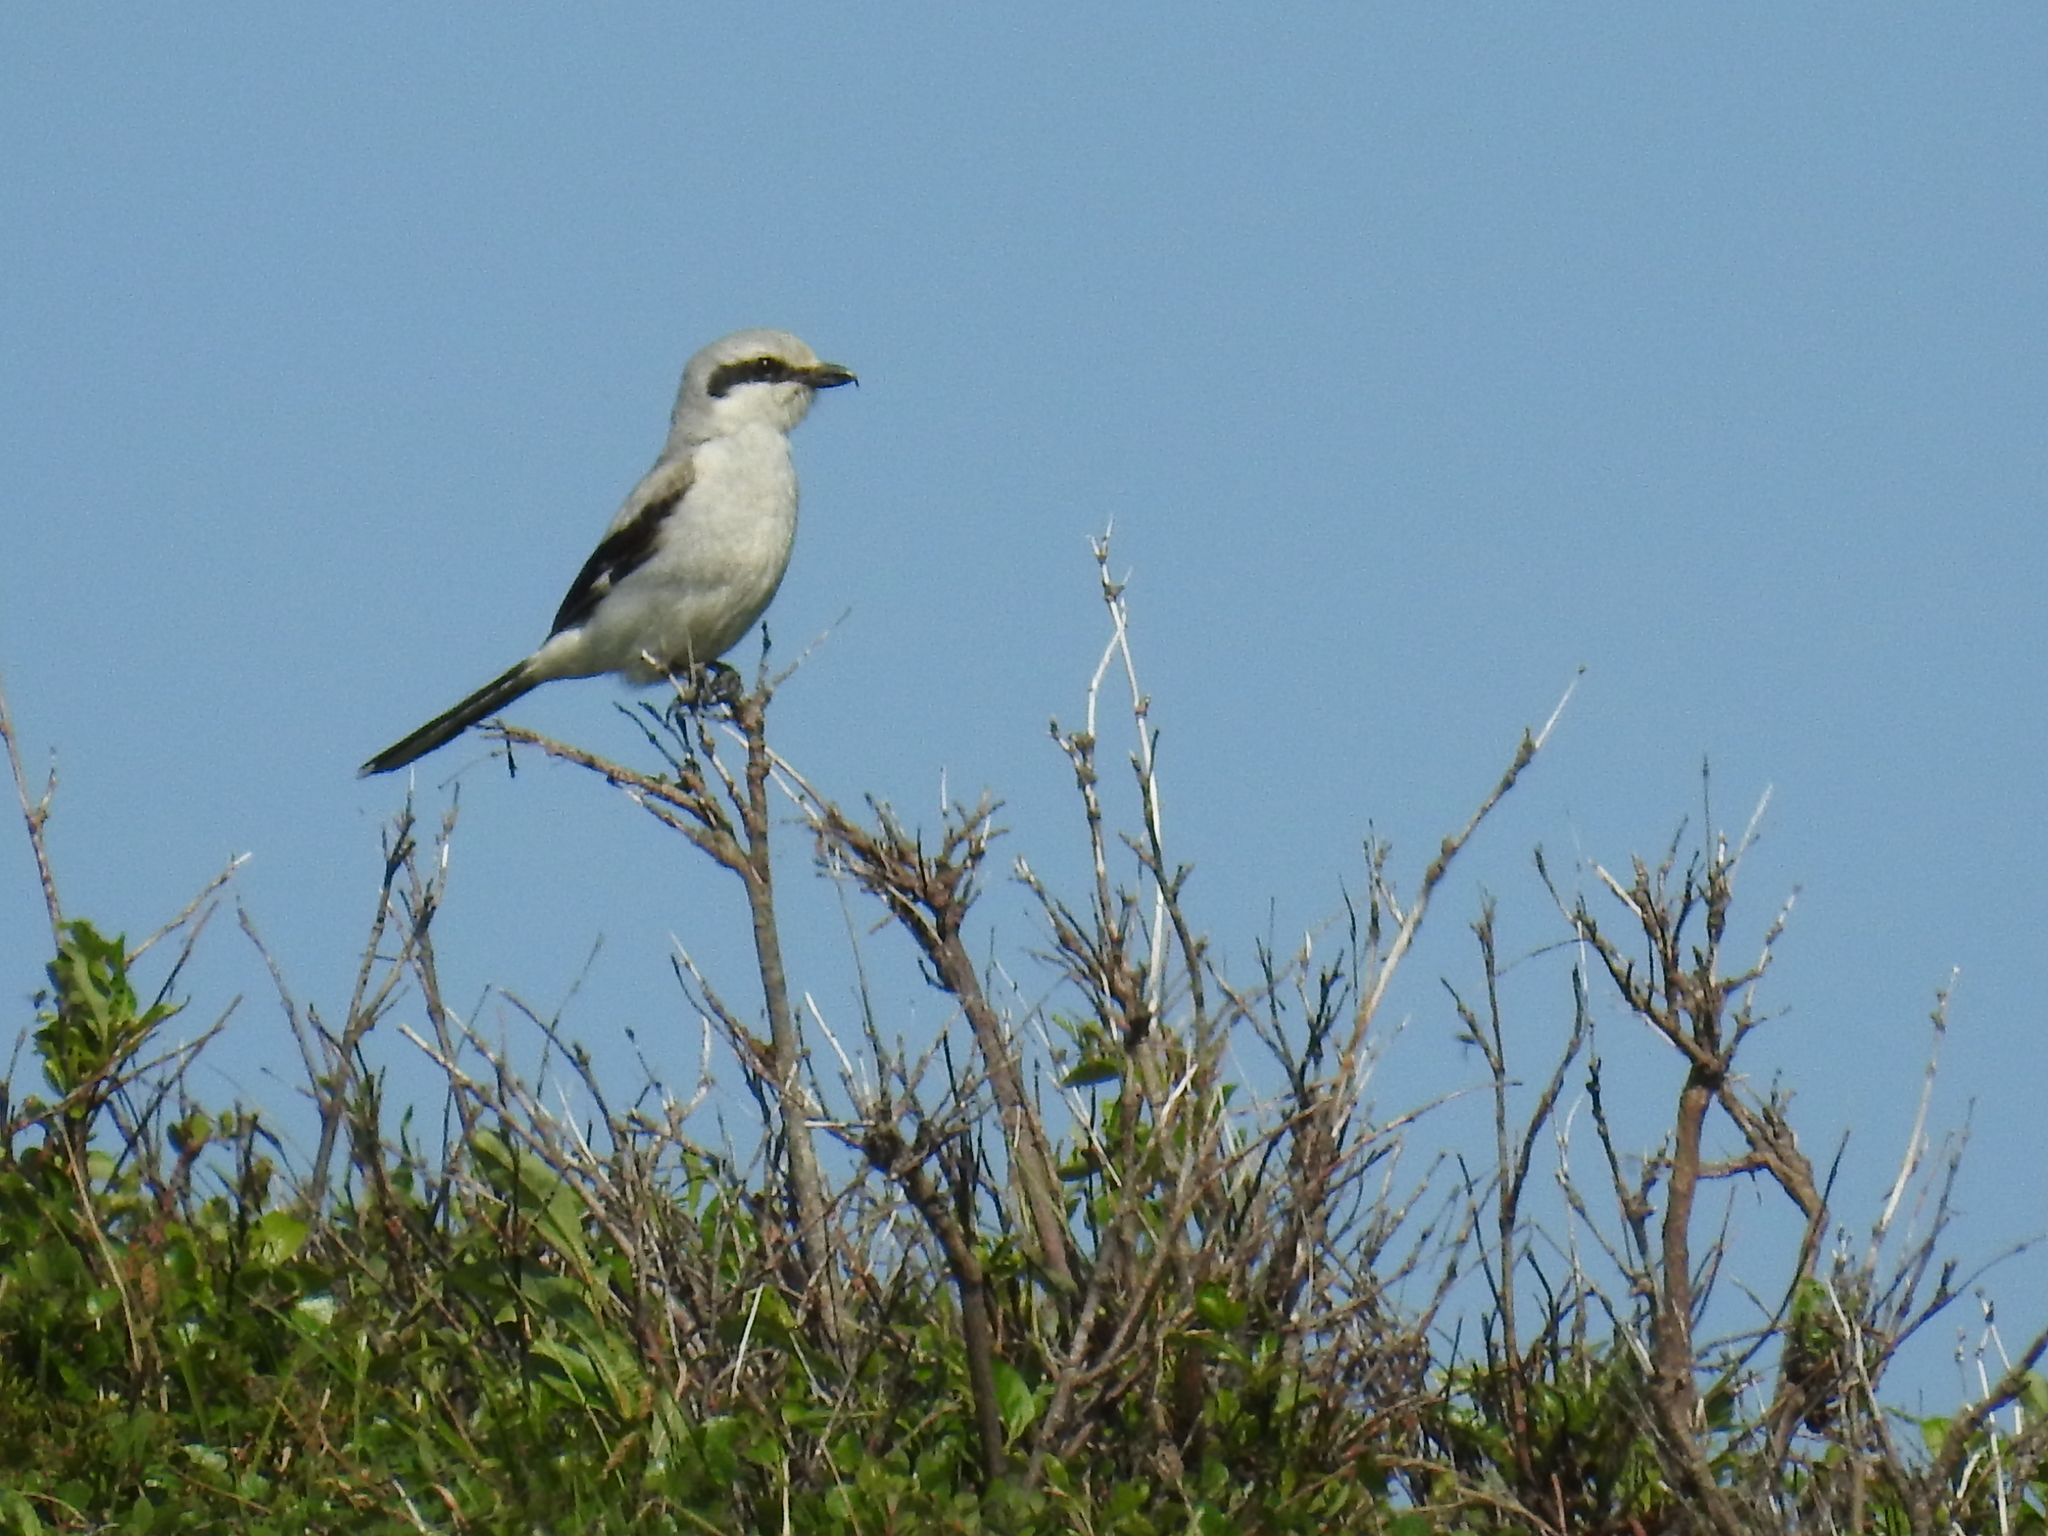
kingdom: Animalia
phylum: Chordata
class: Aves
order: Passeriformes
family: Laniidae
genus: Lanius
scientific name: Lanius borealis
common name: Northern shrike
